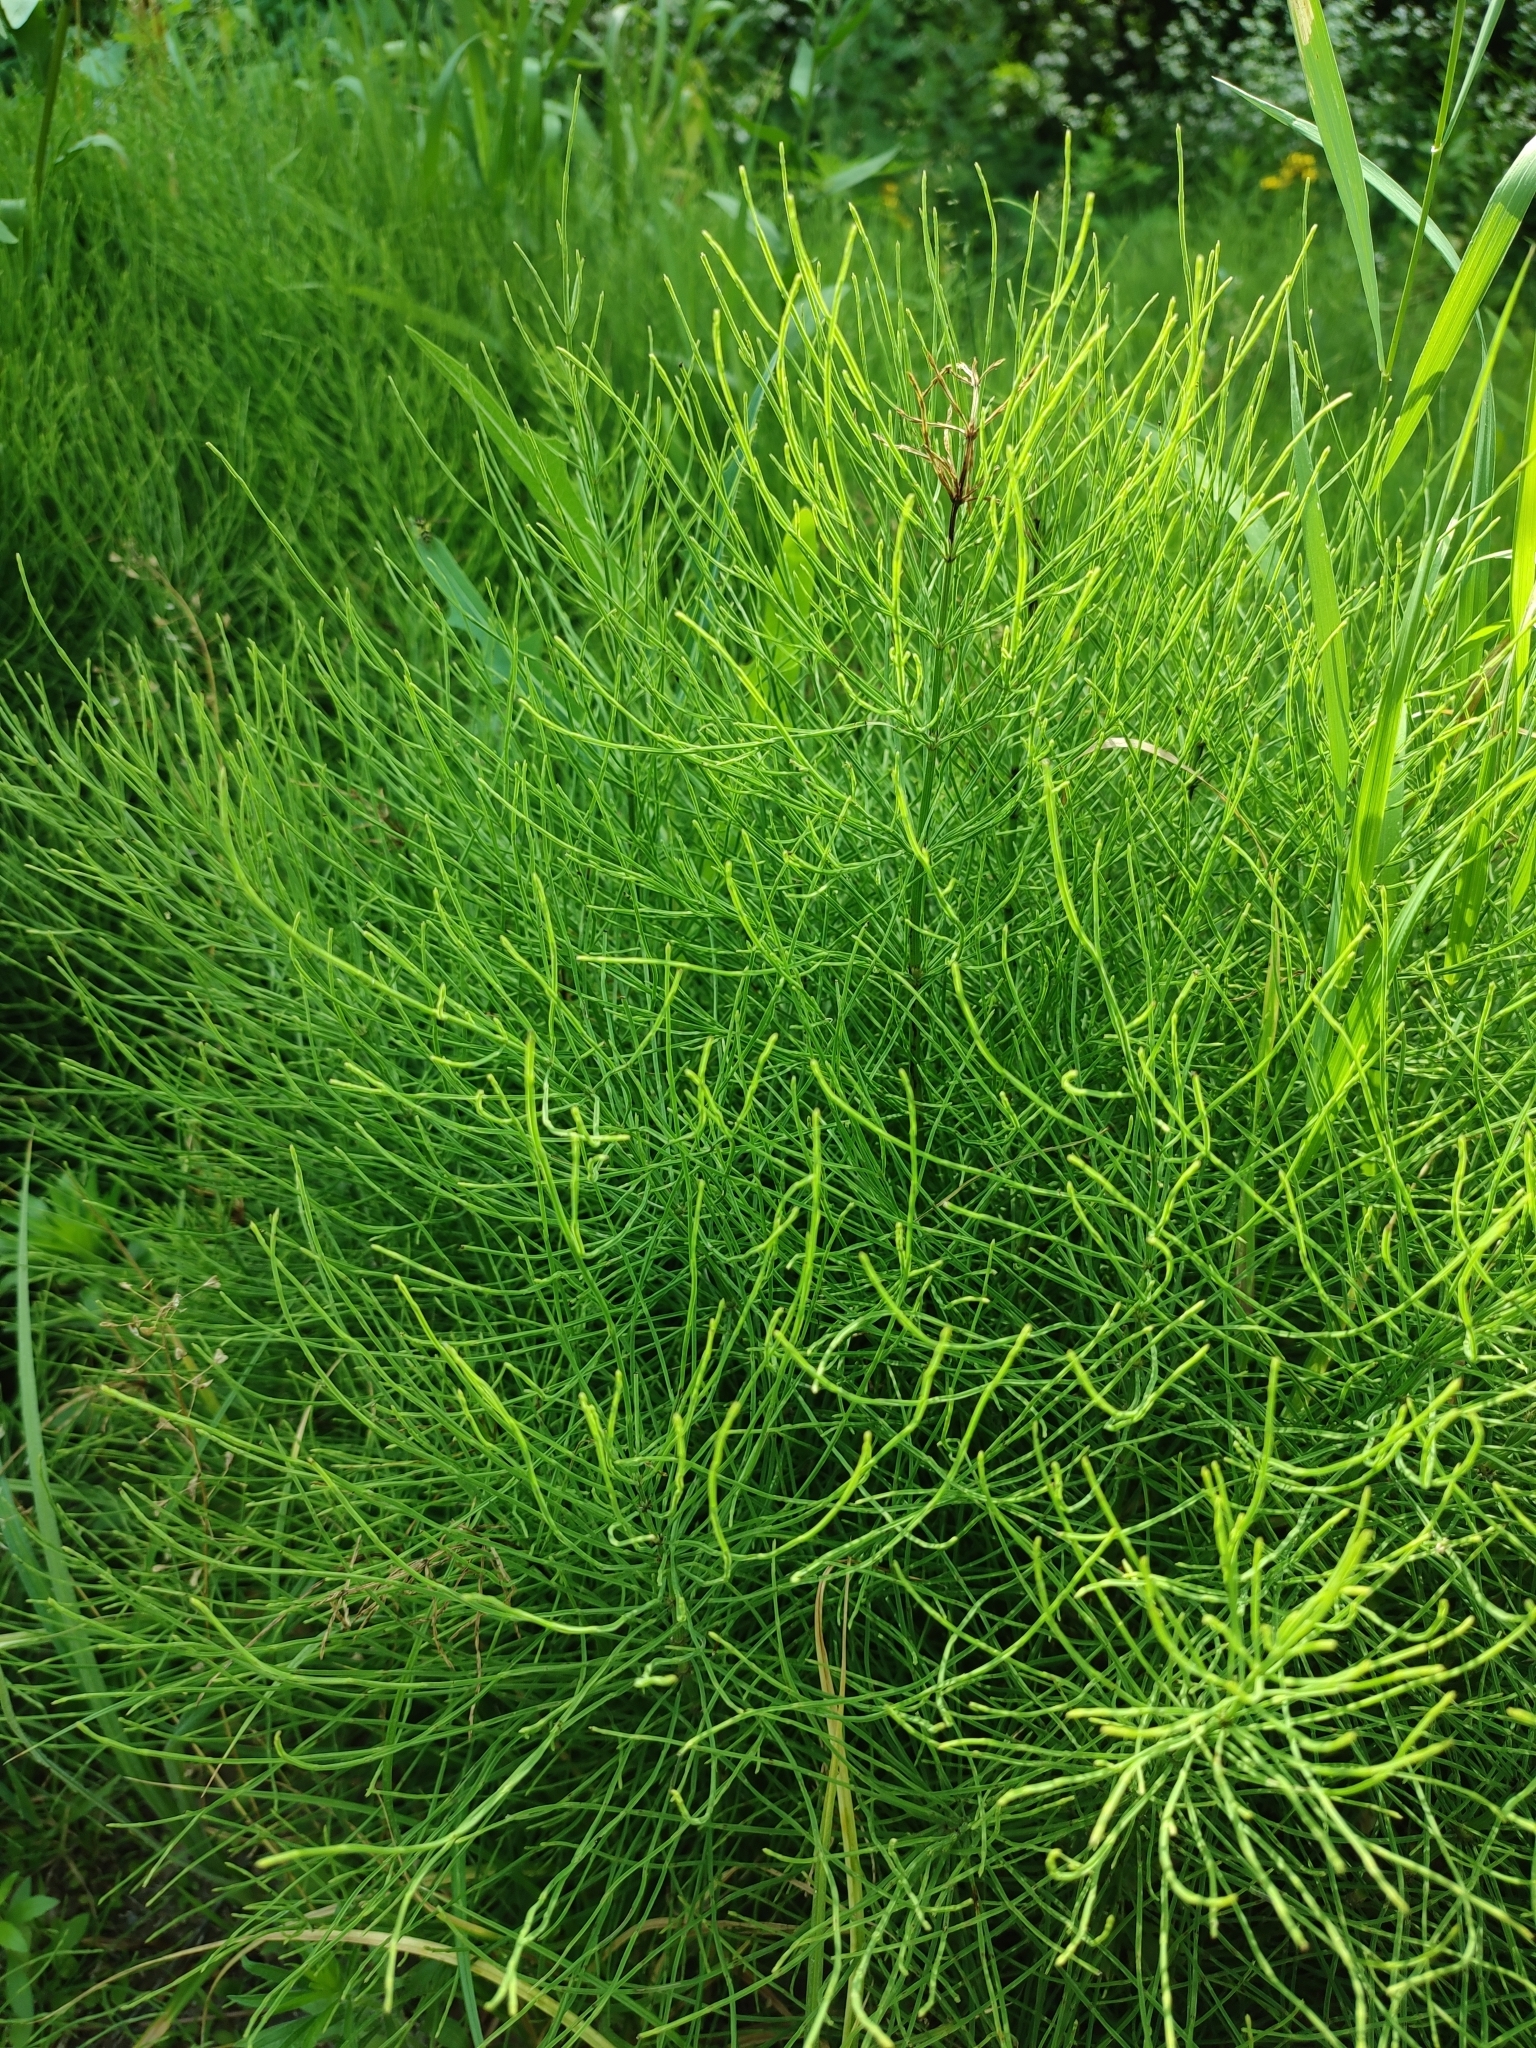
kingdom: Plantae
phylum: Tracheophyta
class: Polypodiopsida
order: Equisetales
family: Equisetaceae
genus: Equisetum
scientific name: Equisetum arvense
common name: Field horsetail
